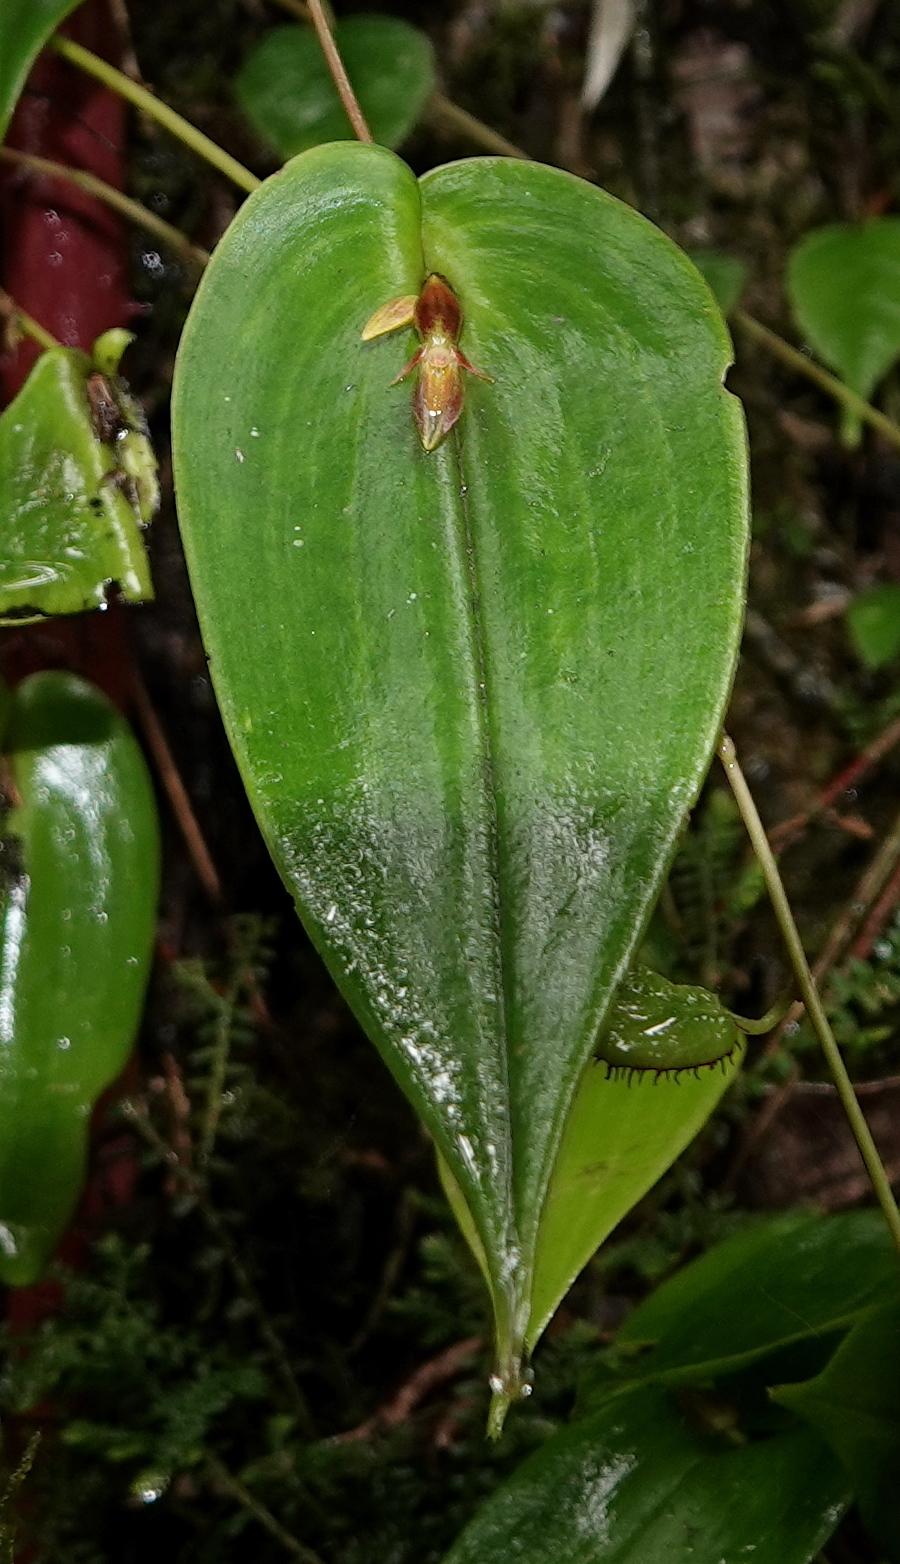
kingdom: Plantae
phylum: Tracheophyta
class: Liliopsida
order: Asparagales
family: Orchidaceae
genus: Pleurothallis
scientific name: Pleurothallis coriacardia
